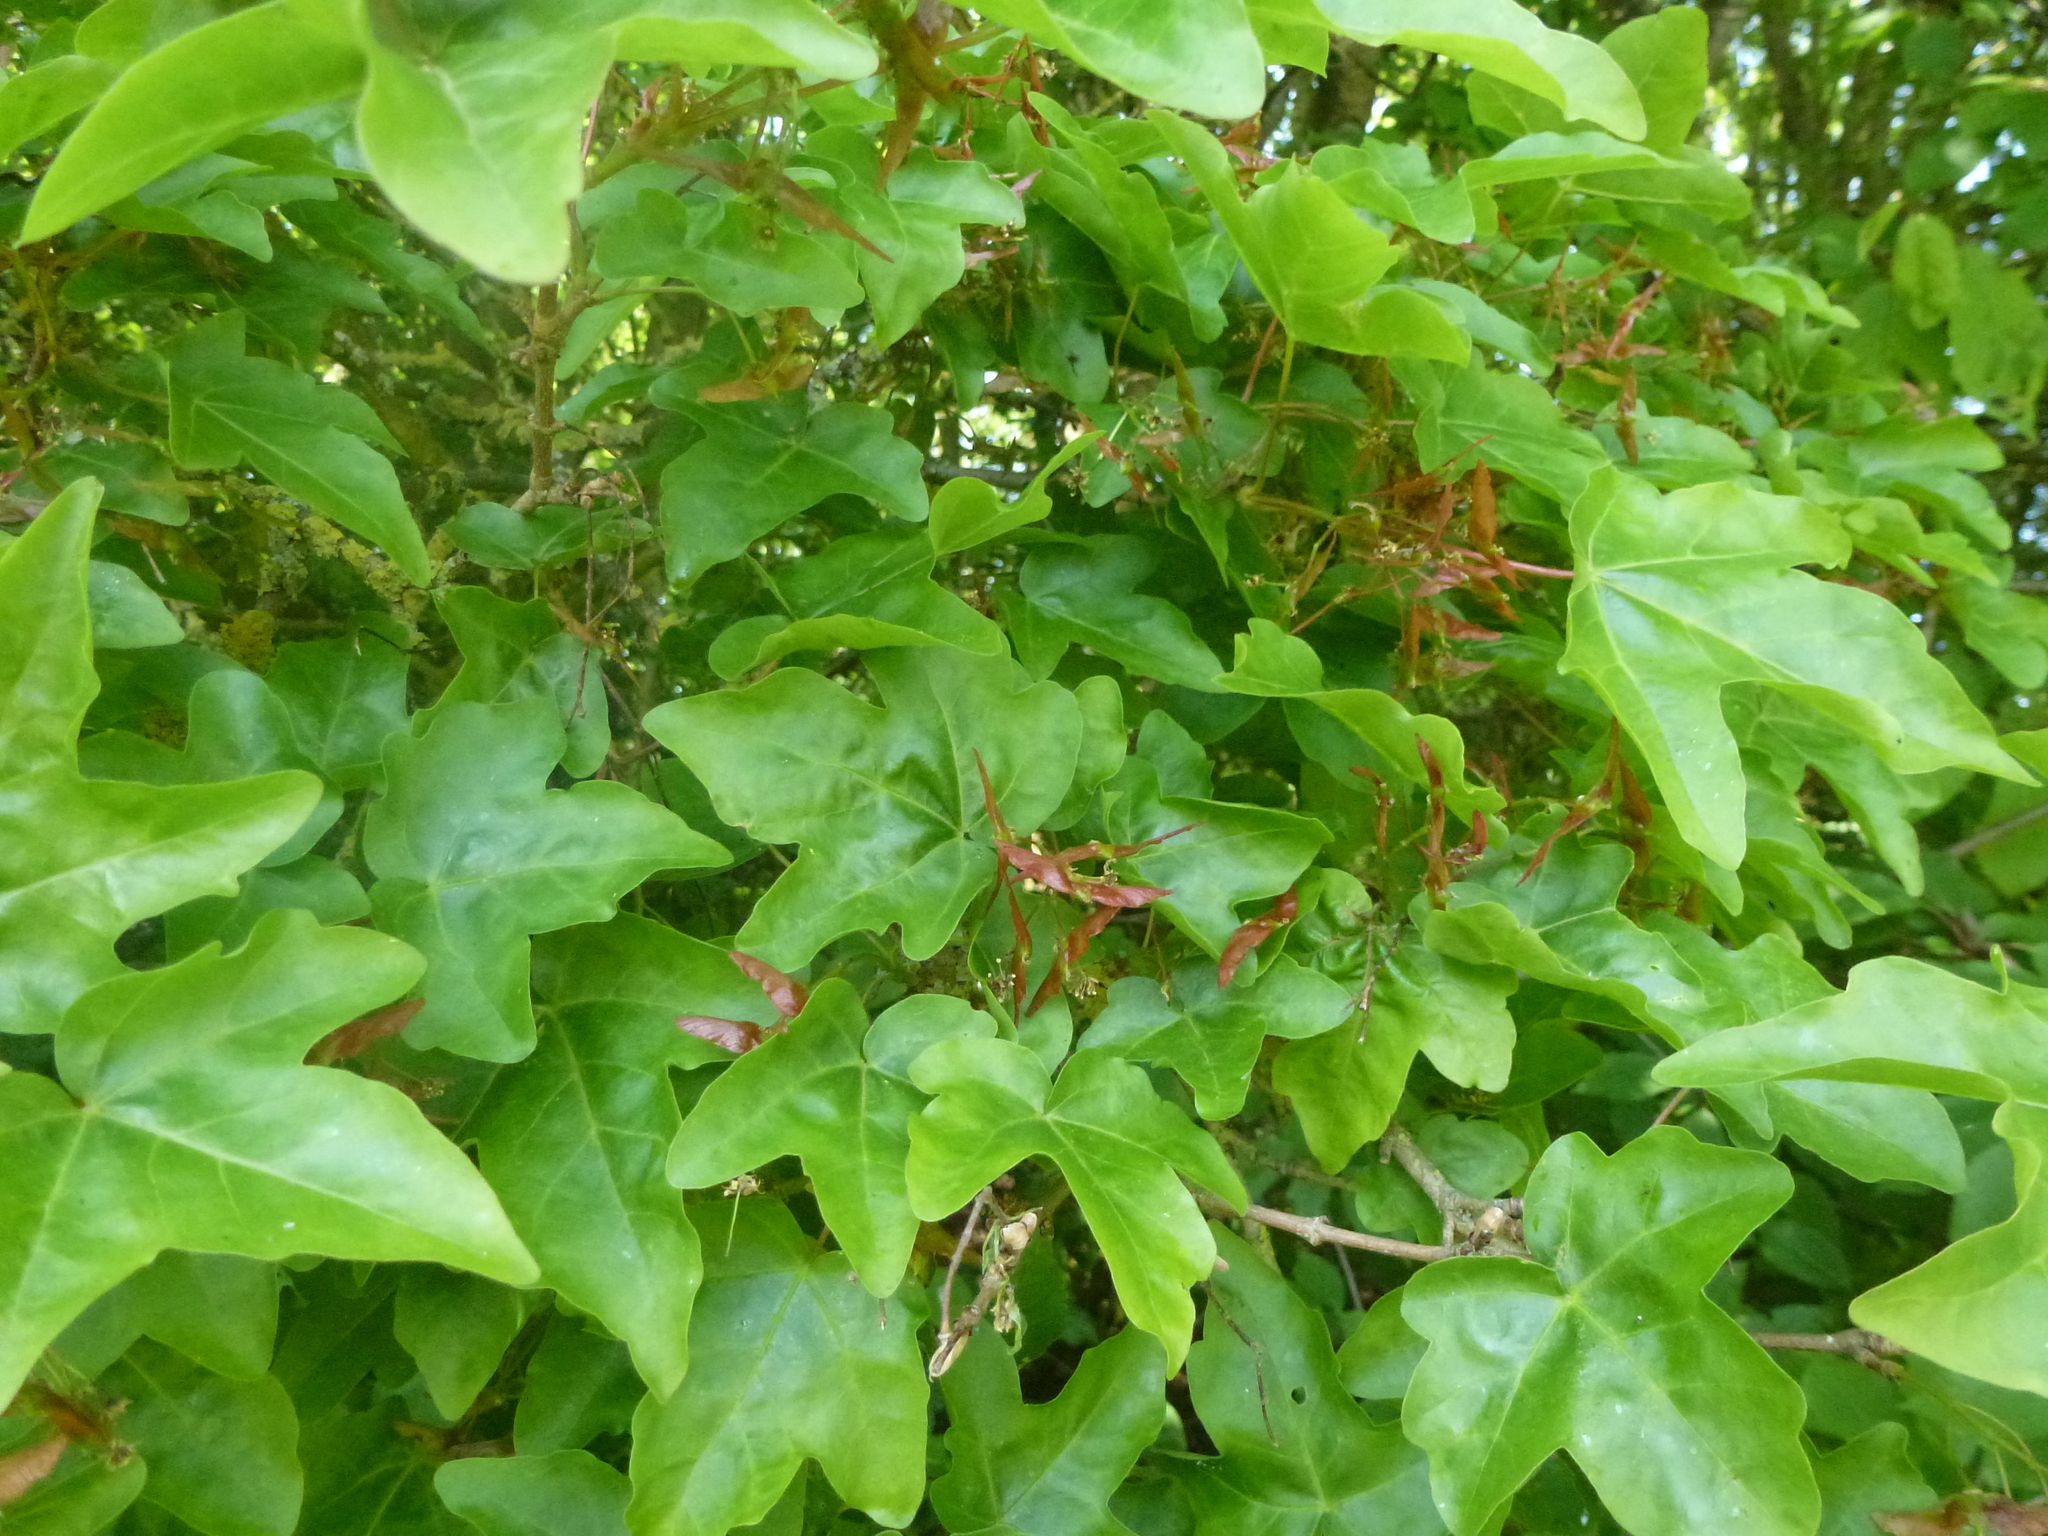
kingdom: Plantae
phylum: Tracheophyta
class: Magnoliopsida
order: Sapindales
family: Sapindaceae
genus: Acer
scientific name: Acer campestre
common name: Field maple
